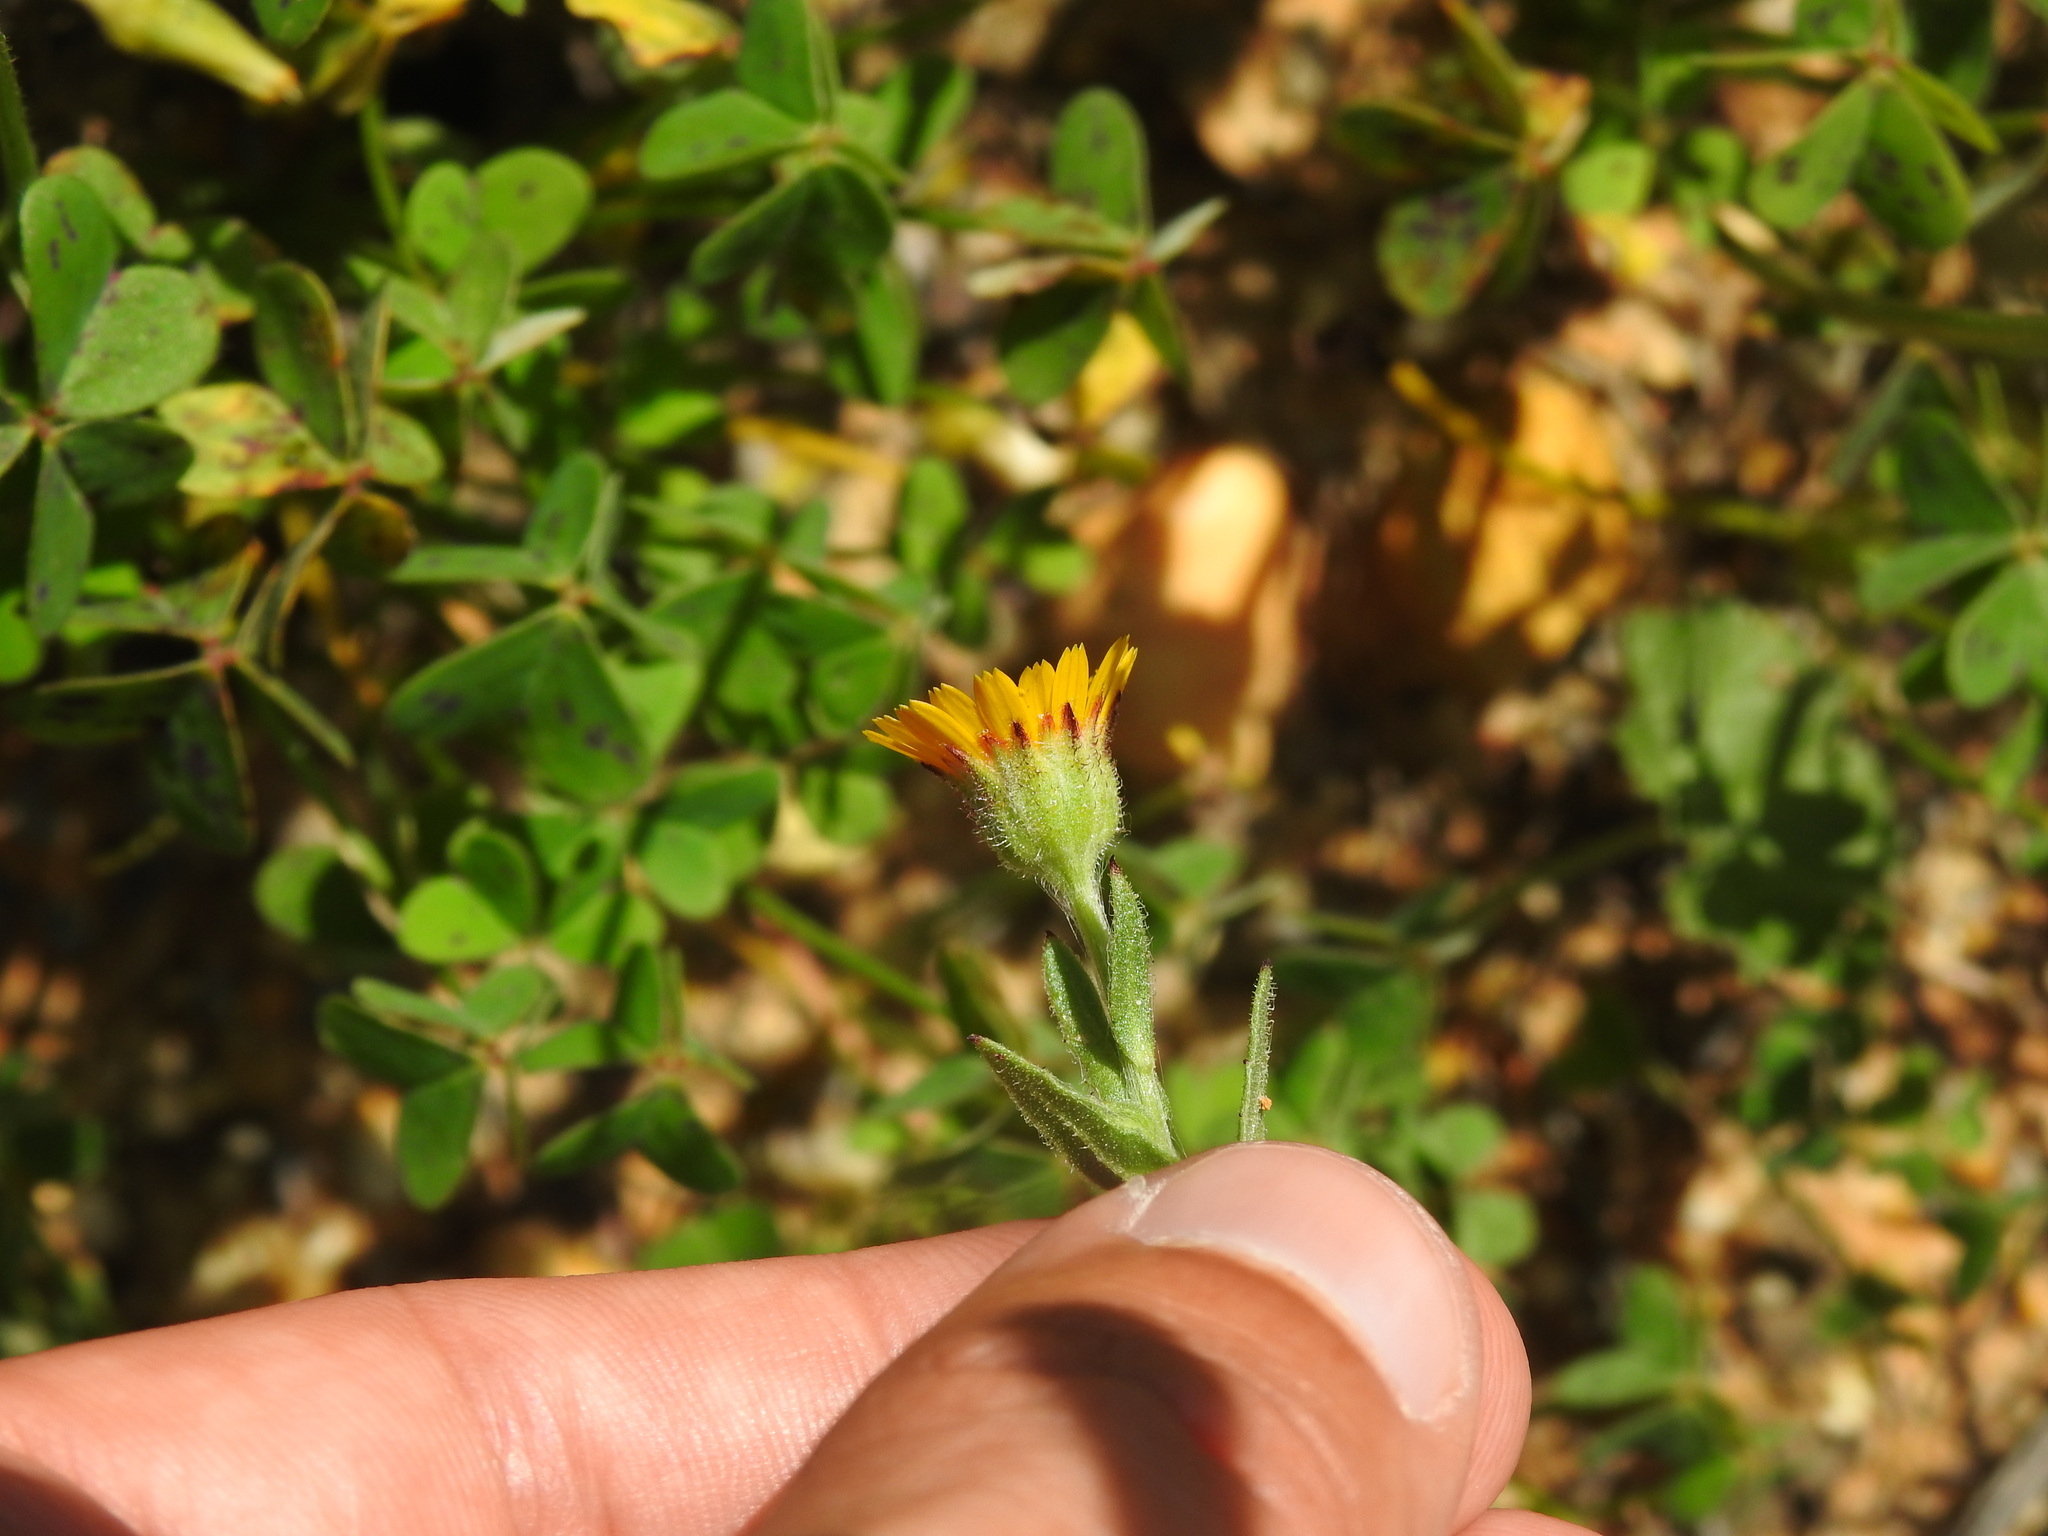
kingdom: Plantae
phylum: Tracheophyta
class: Magnoliopsida
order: Asterales
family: Asteraceae
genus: Calendula
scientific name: Calendula arvensis
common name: Field marigold
